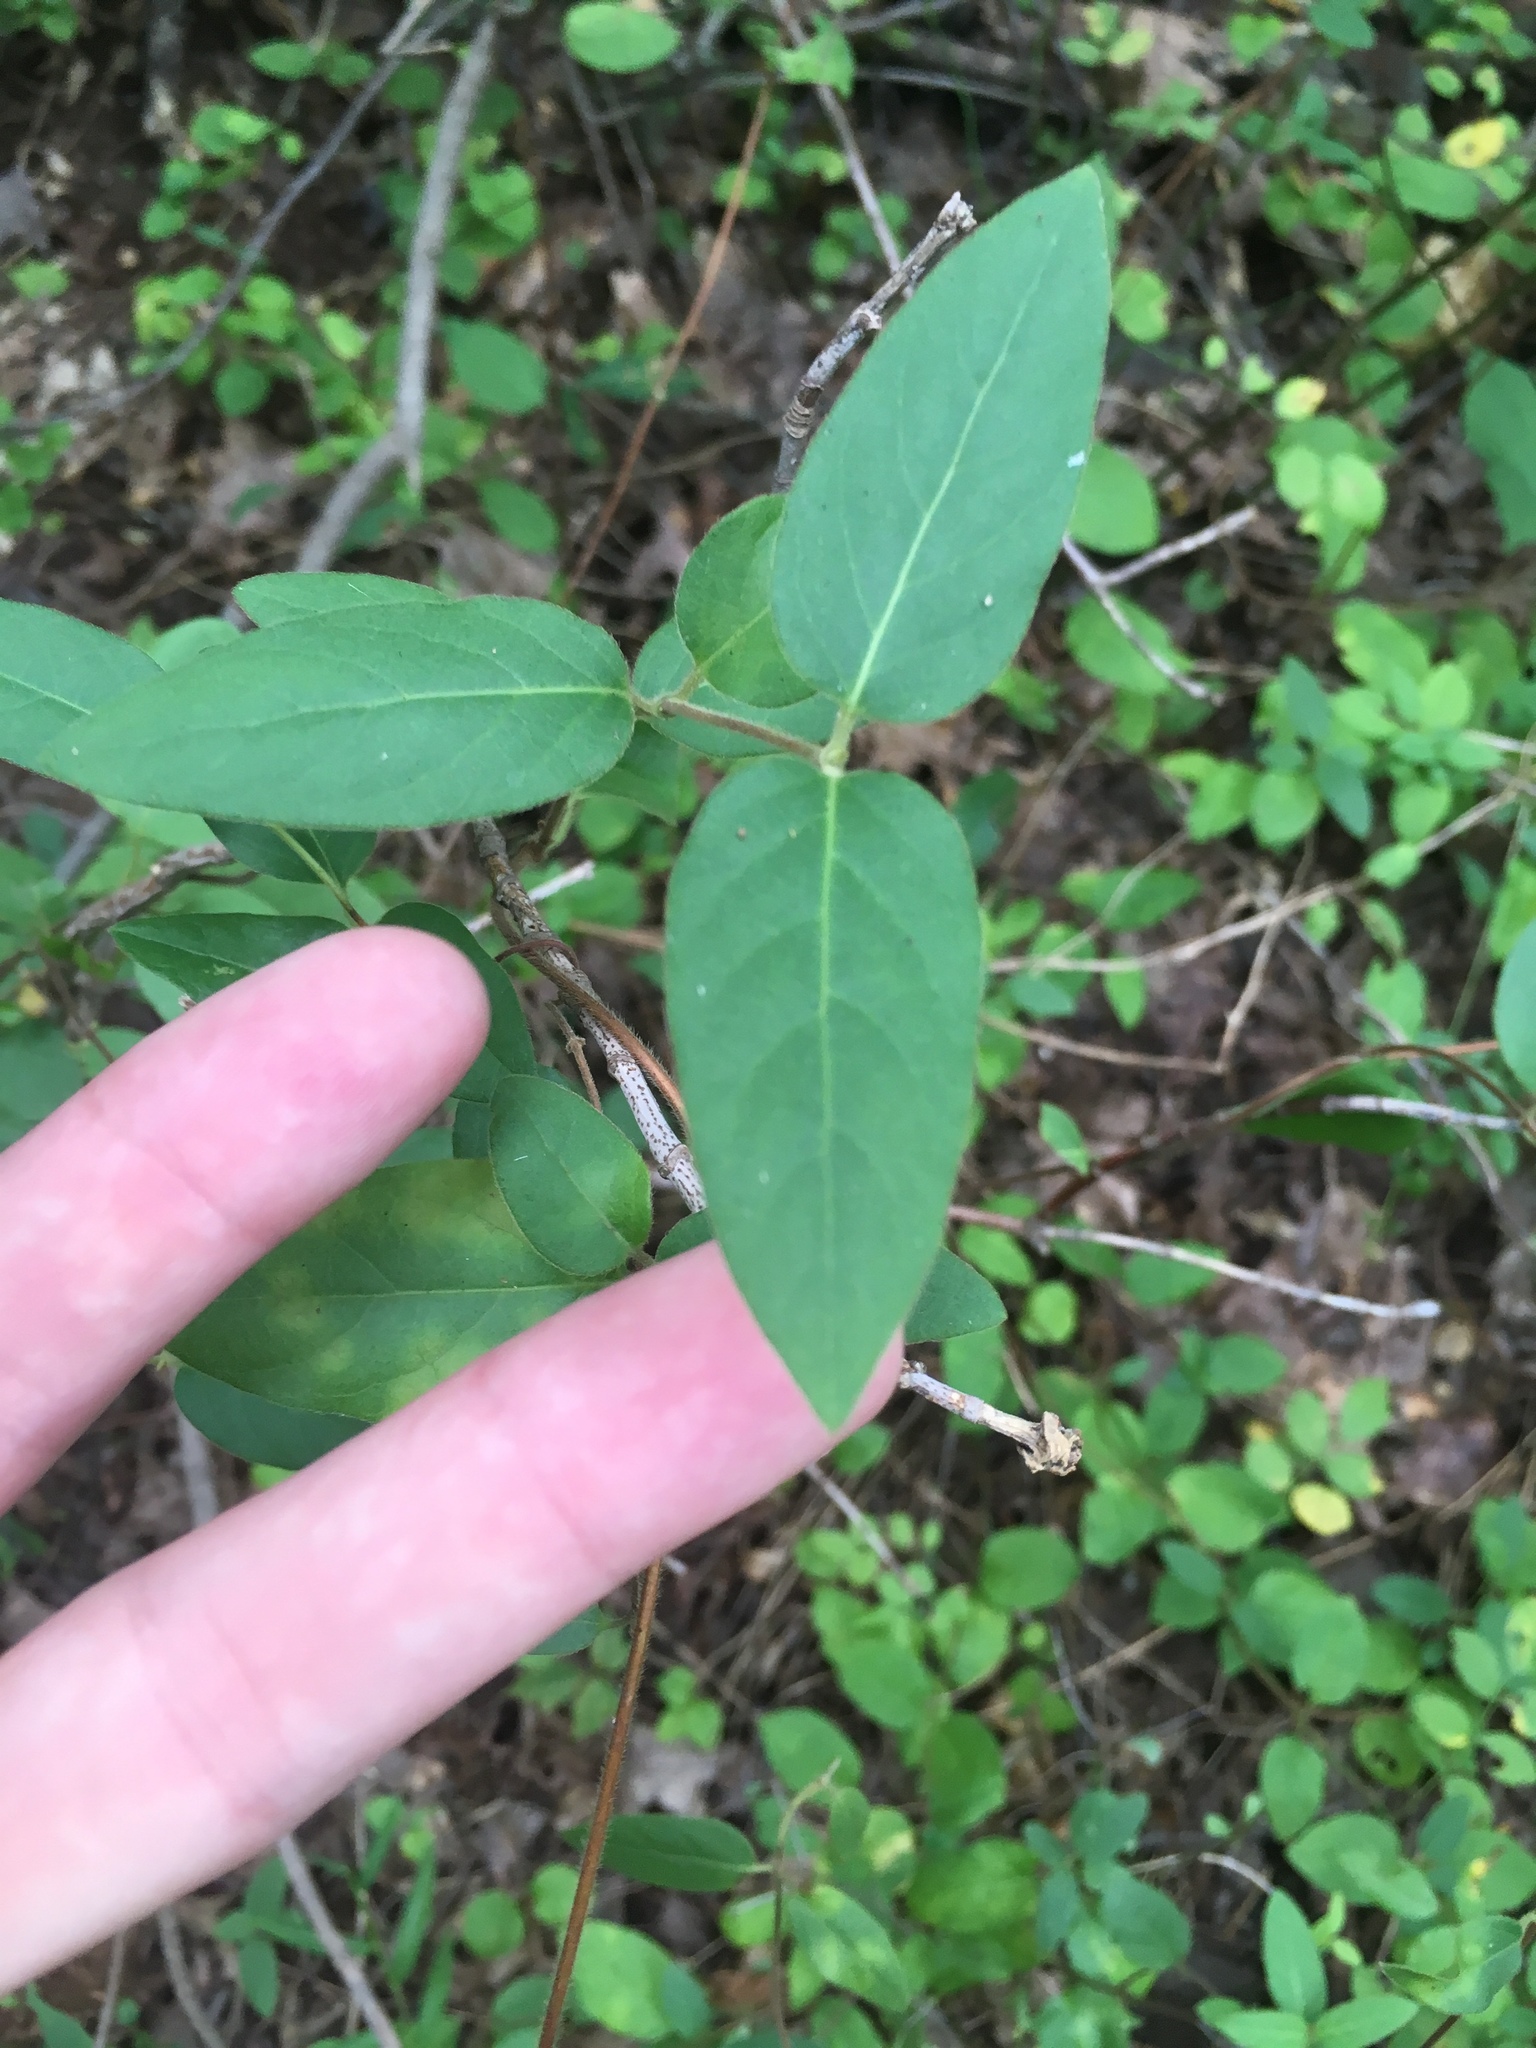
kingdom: Plantae
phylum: Tracheophyta
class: Magnoliopsida
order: Dipsacales
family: Caprifoliaceae
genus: Lonicera
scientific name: Lonicera japonica
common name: Japanese honeysuckle
